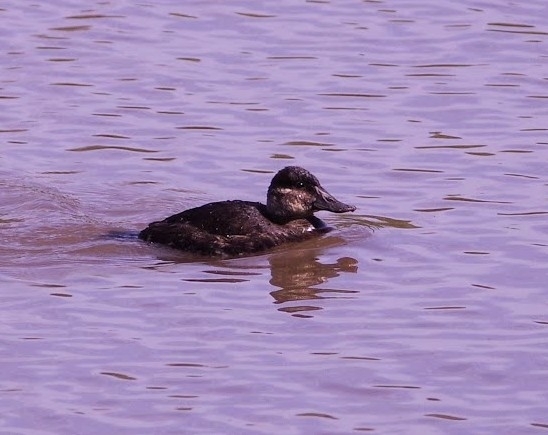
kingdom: Animalia
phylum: Chordata
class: Aves
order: Anseriformes
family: Anatidae
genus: Oxyura
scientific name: Oxyura jamaicensis
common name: Ruddy duck
